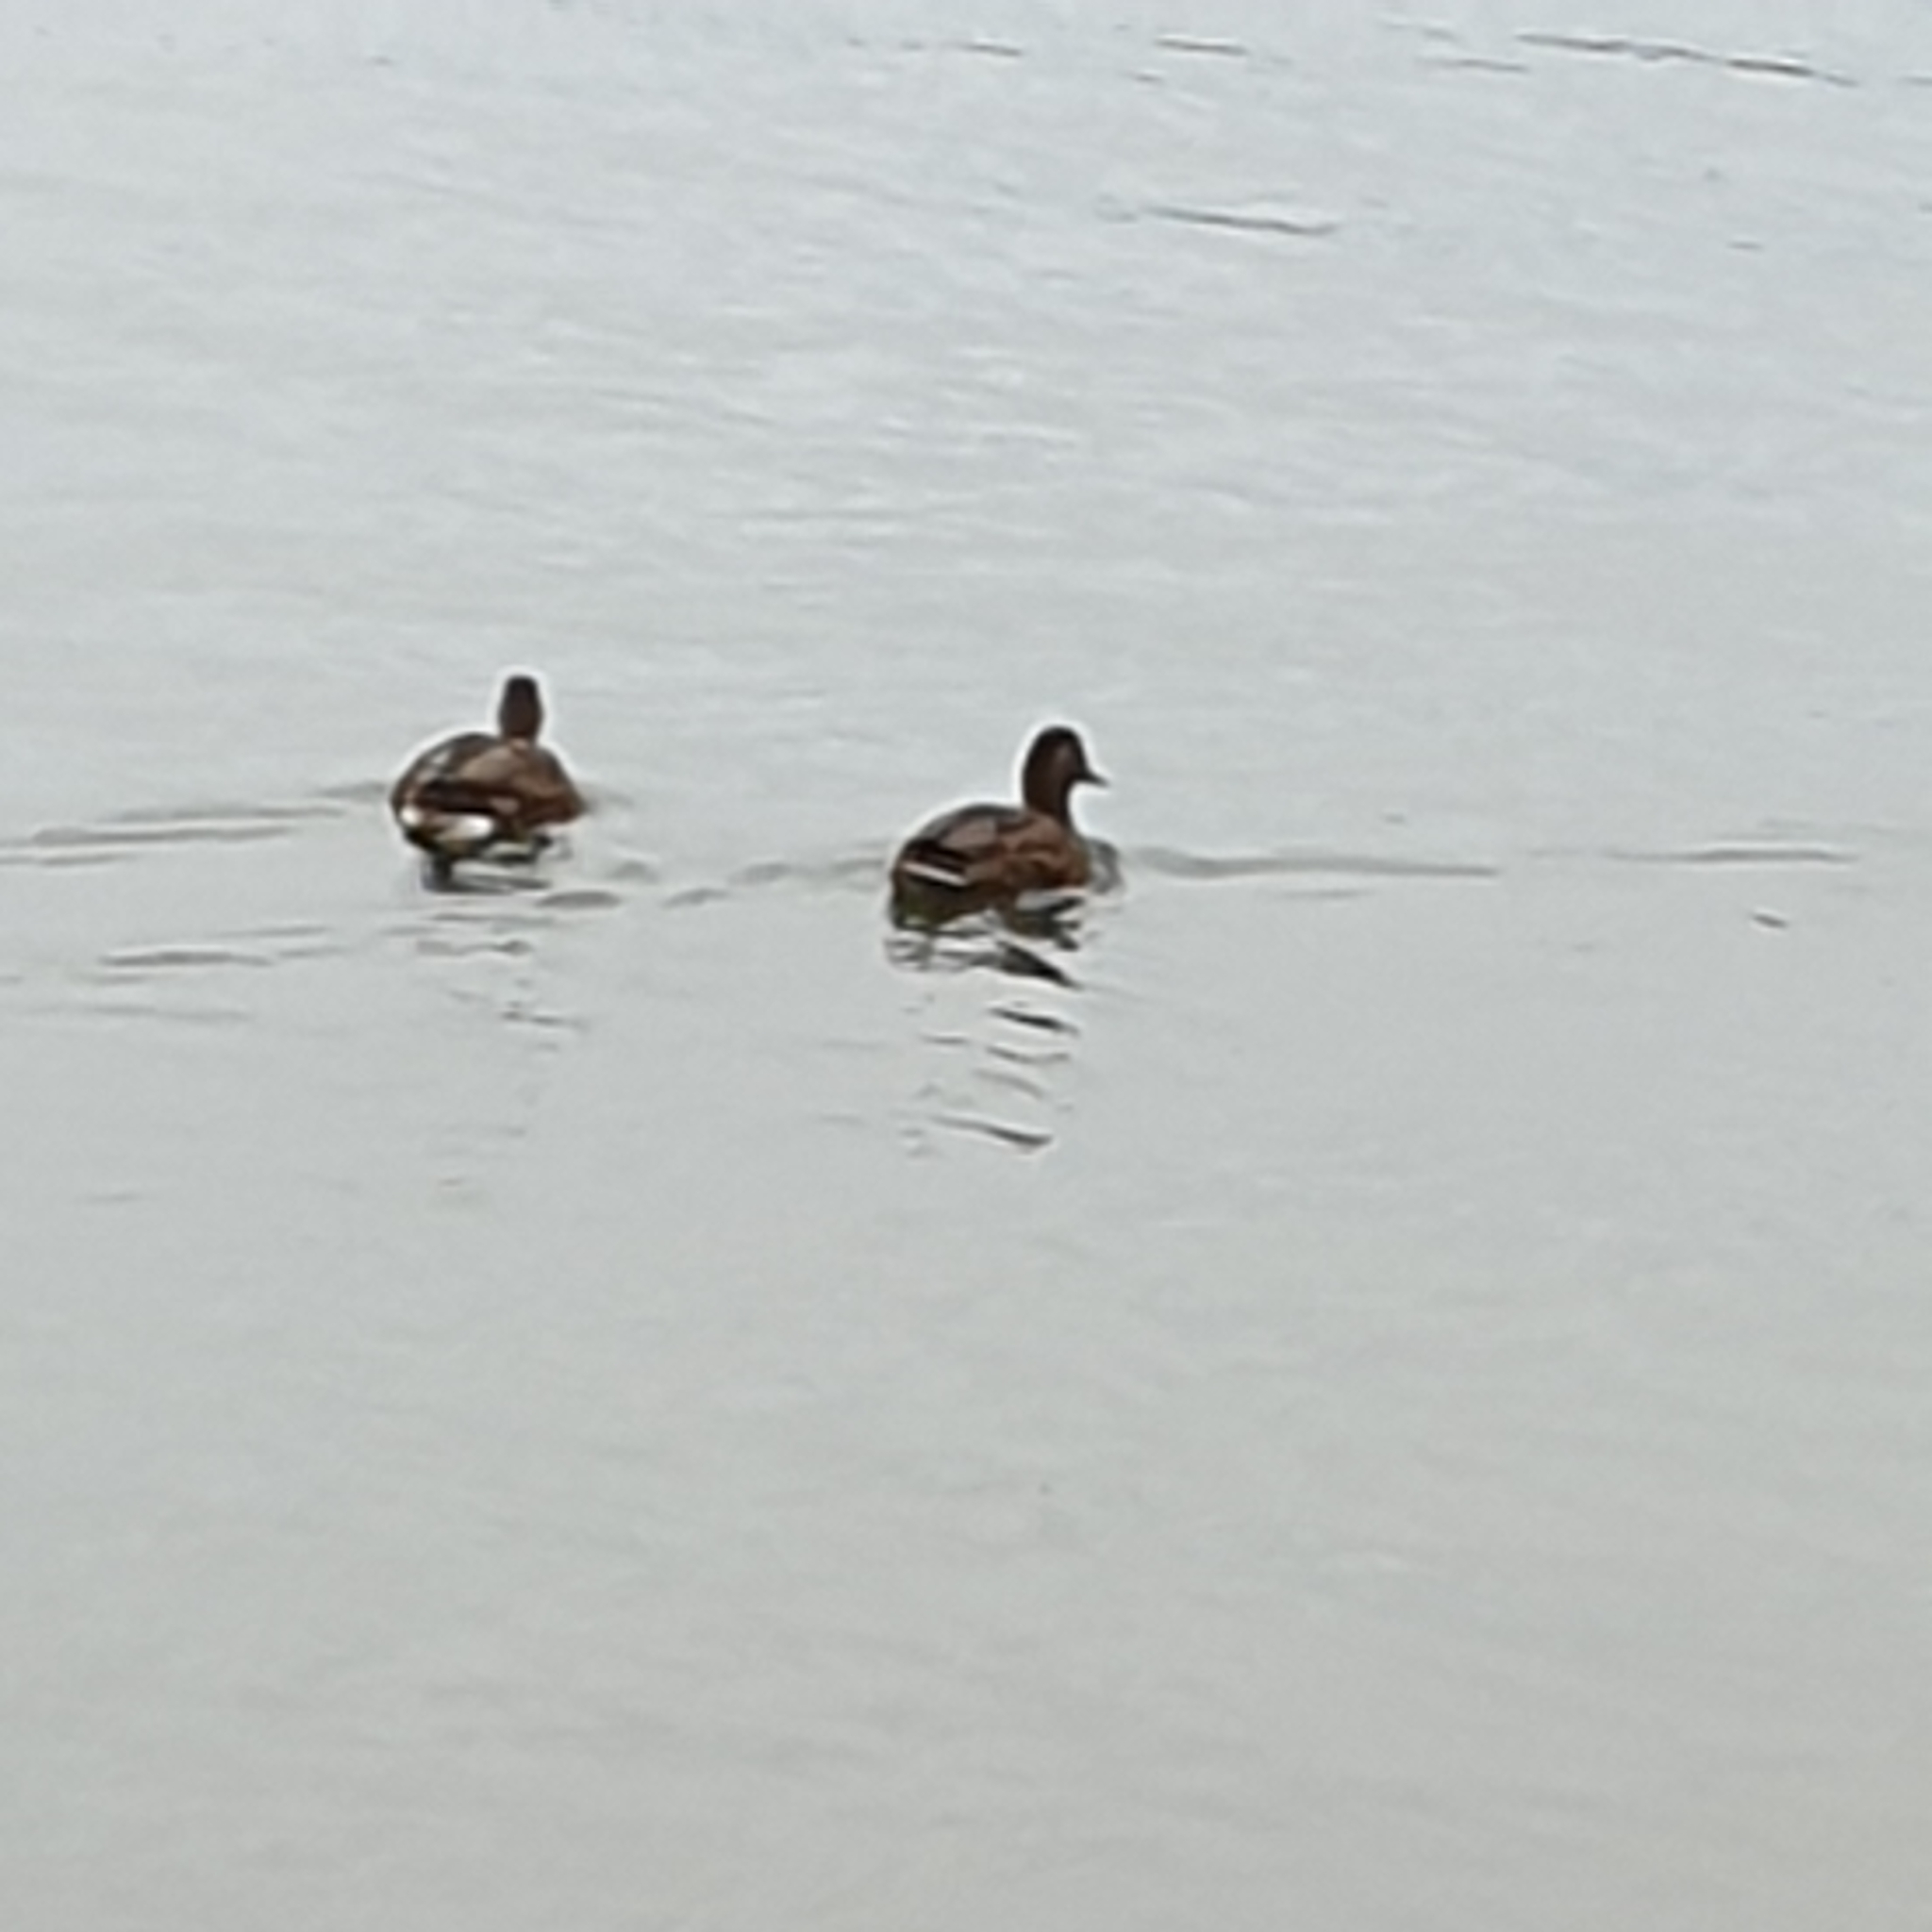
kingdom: Animalia
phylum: Chordata
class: Aves
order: Anseriformes
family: Anatidae
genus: Anas
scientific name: Anas platyrhynchos
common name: Mallard
